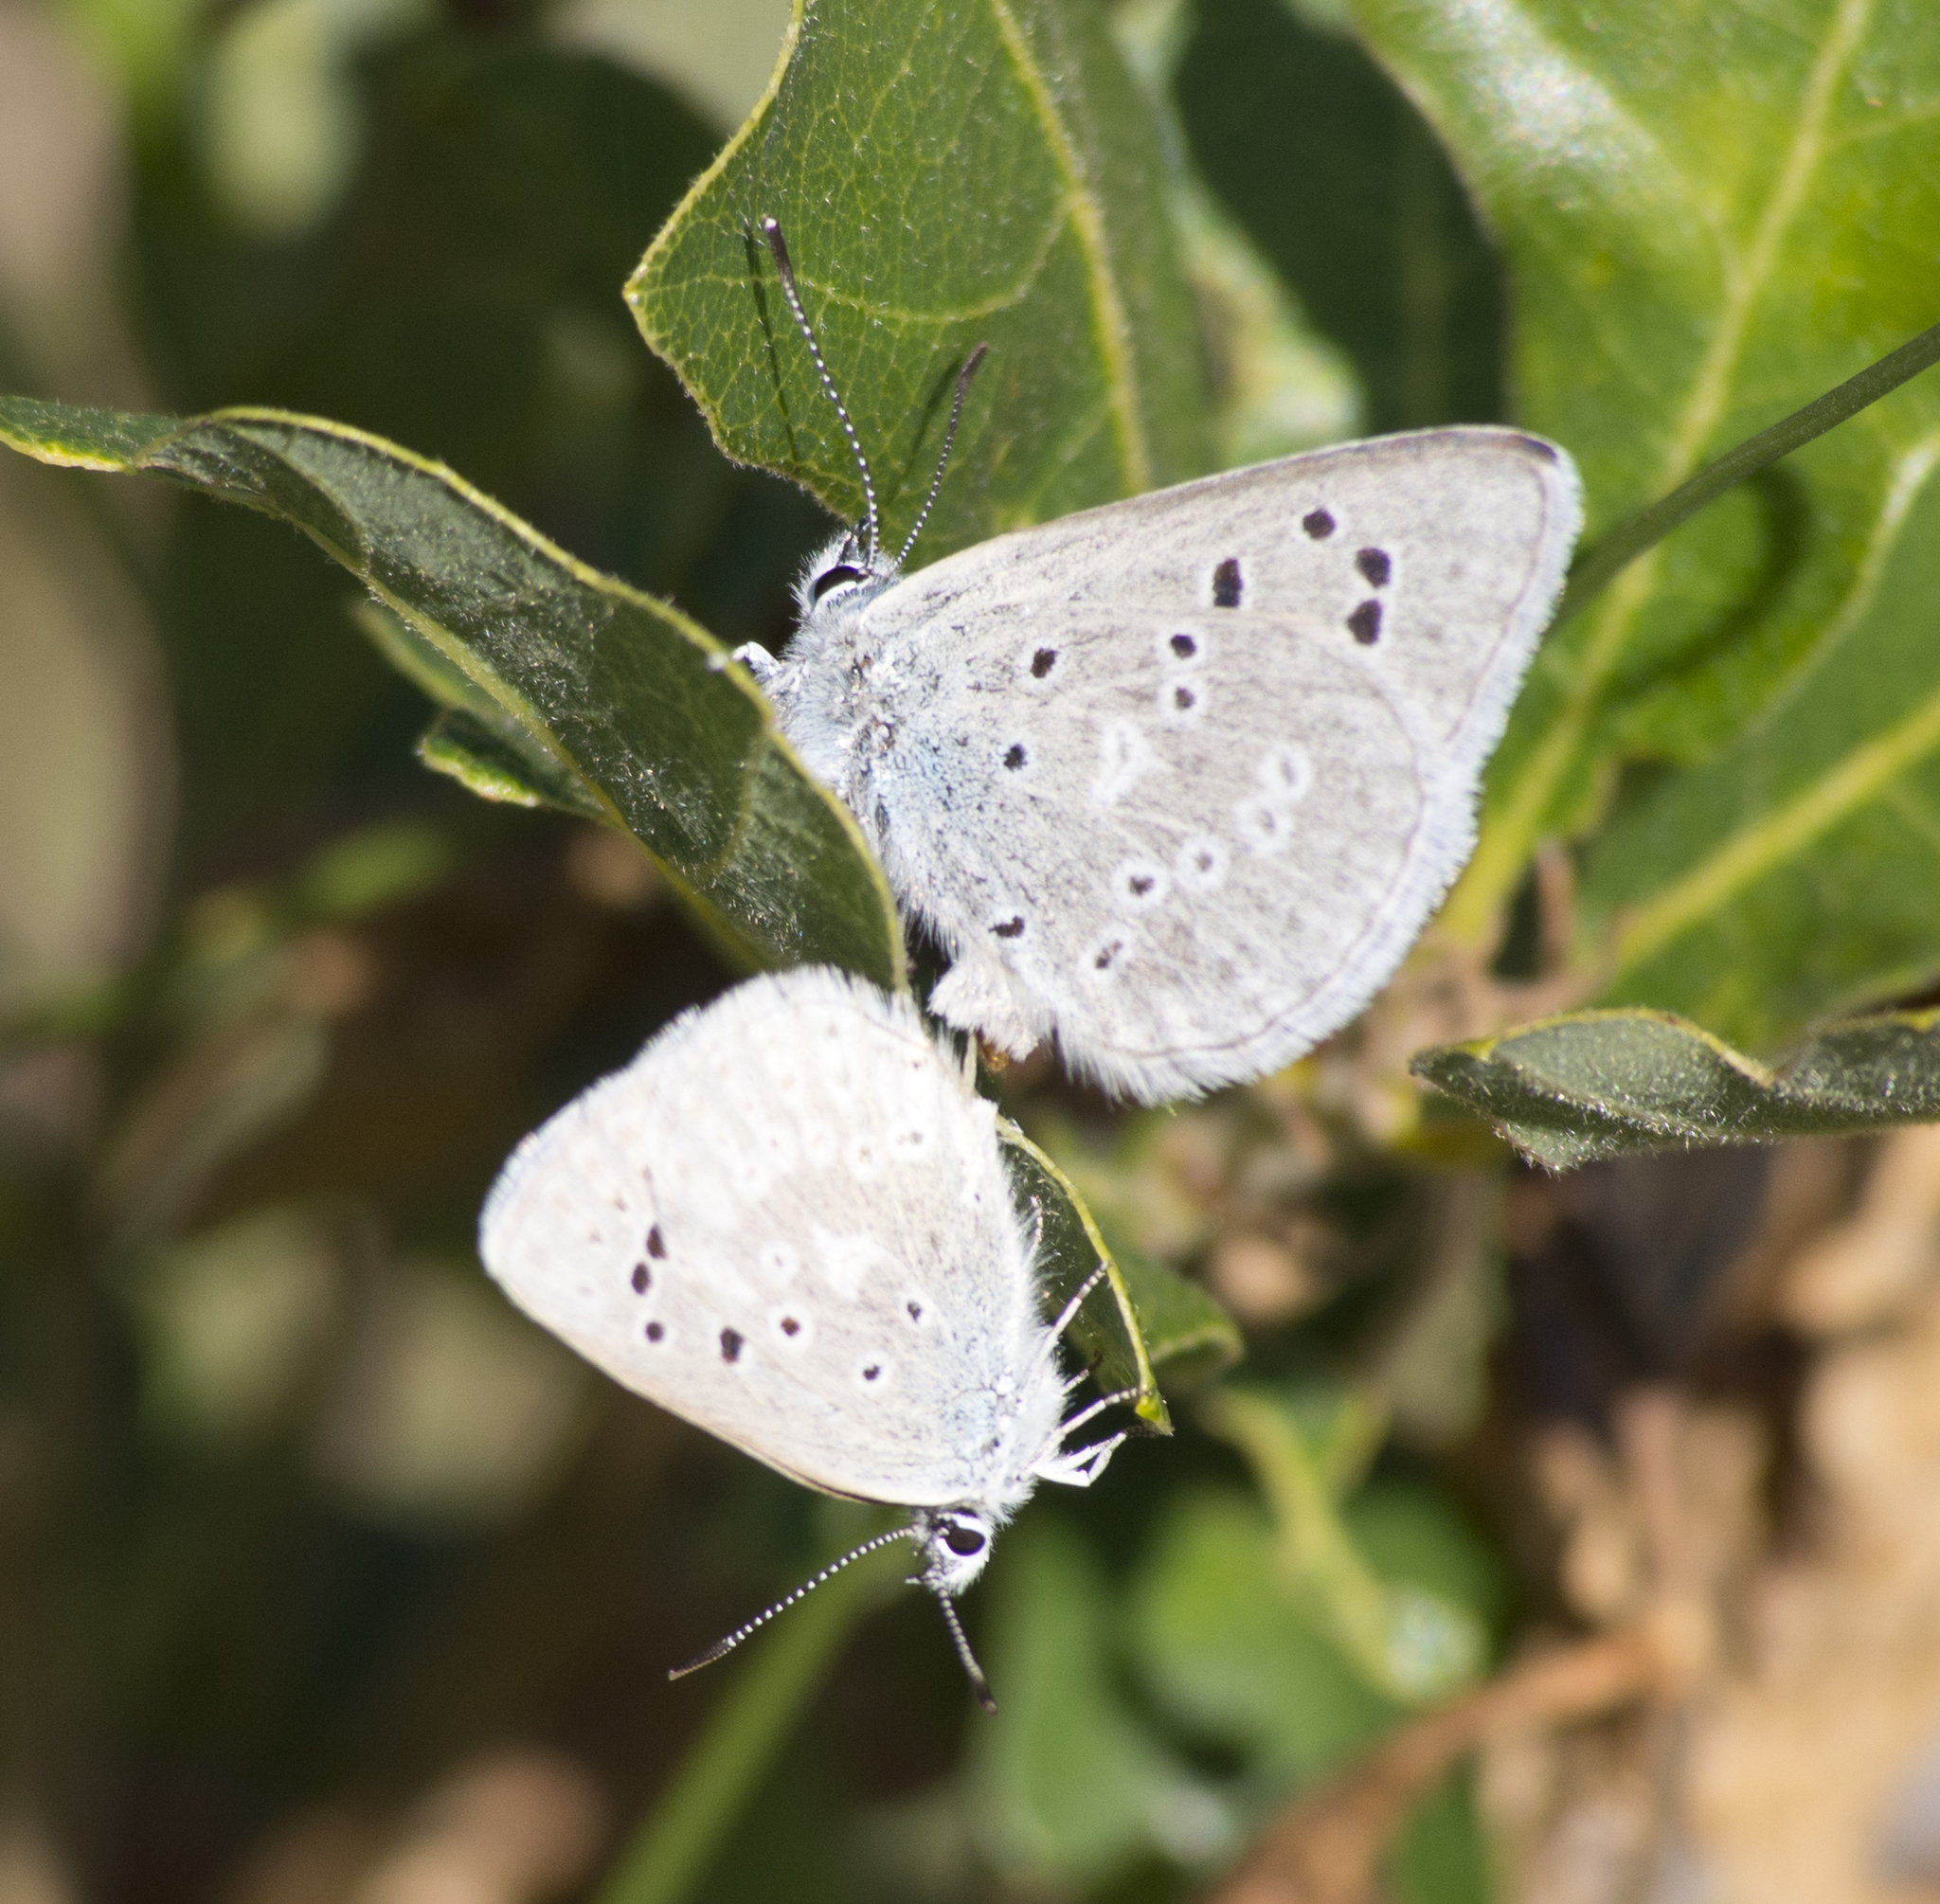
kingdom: Animalia
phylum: Arthropoda
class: Insecta
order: Lepidoptera
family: Lycaenidae
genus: Icaricia
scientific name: Icaricia icarioides
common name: Boisduval's blue
